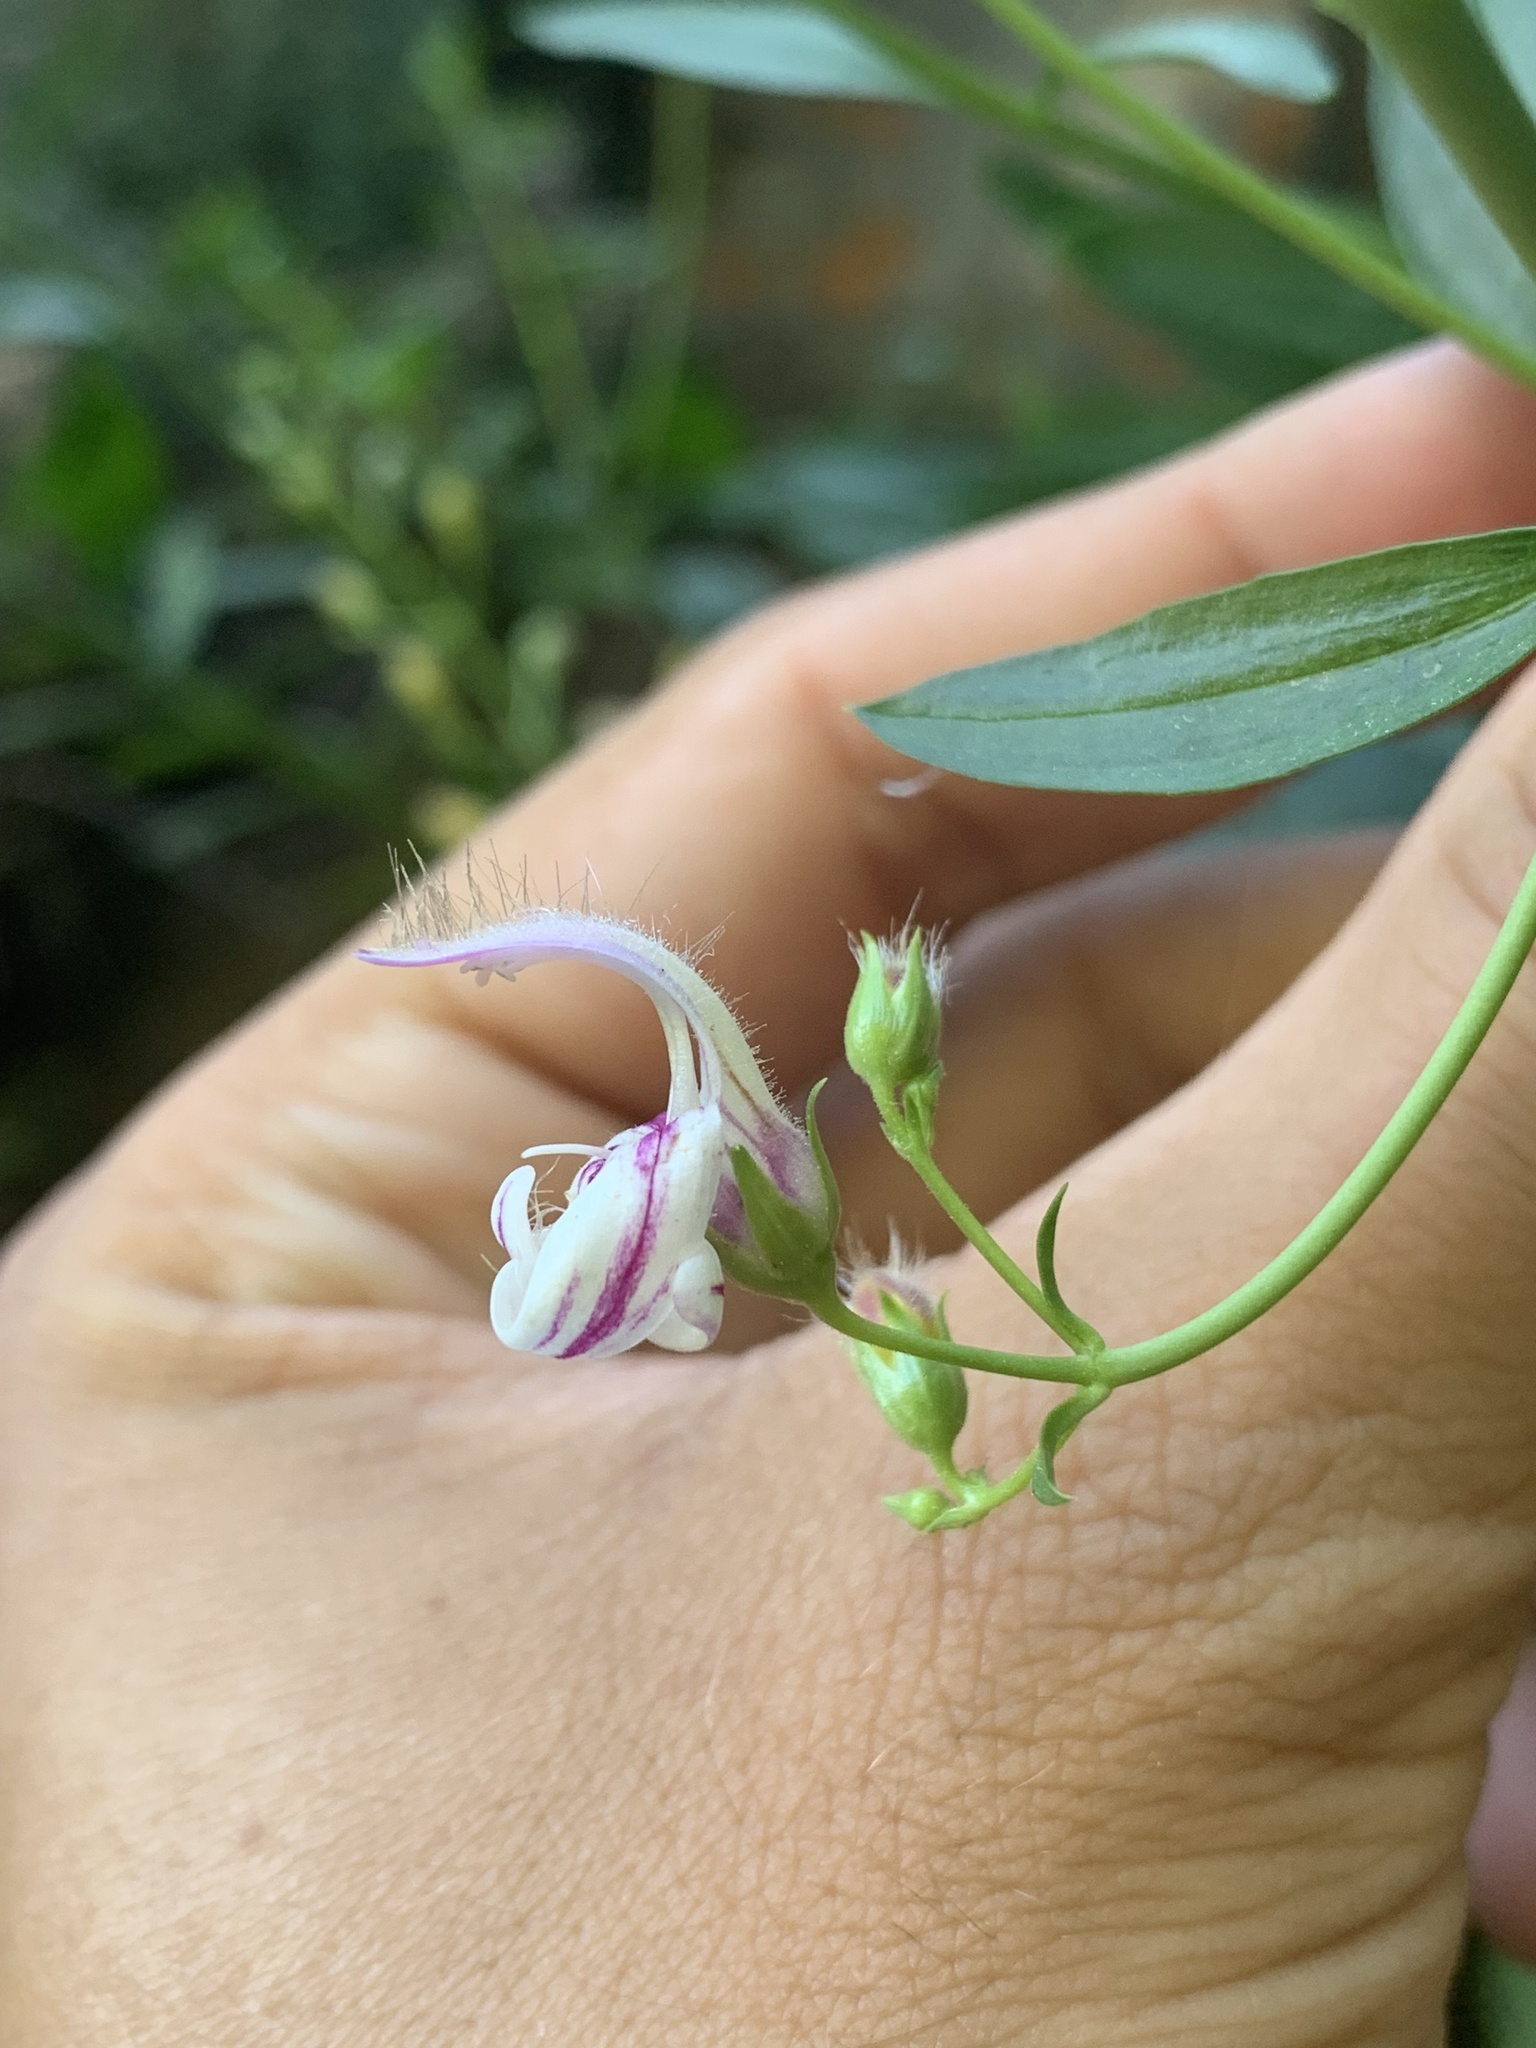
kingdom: Plantae
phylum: Tracheophyta
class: Magnoliopsida
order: Lamiales
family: Plantaginaceae
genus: Keckiella
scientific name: Keckiella breviflora
